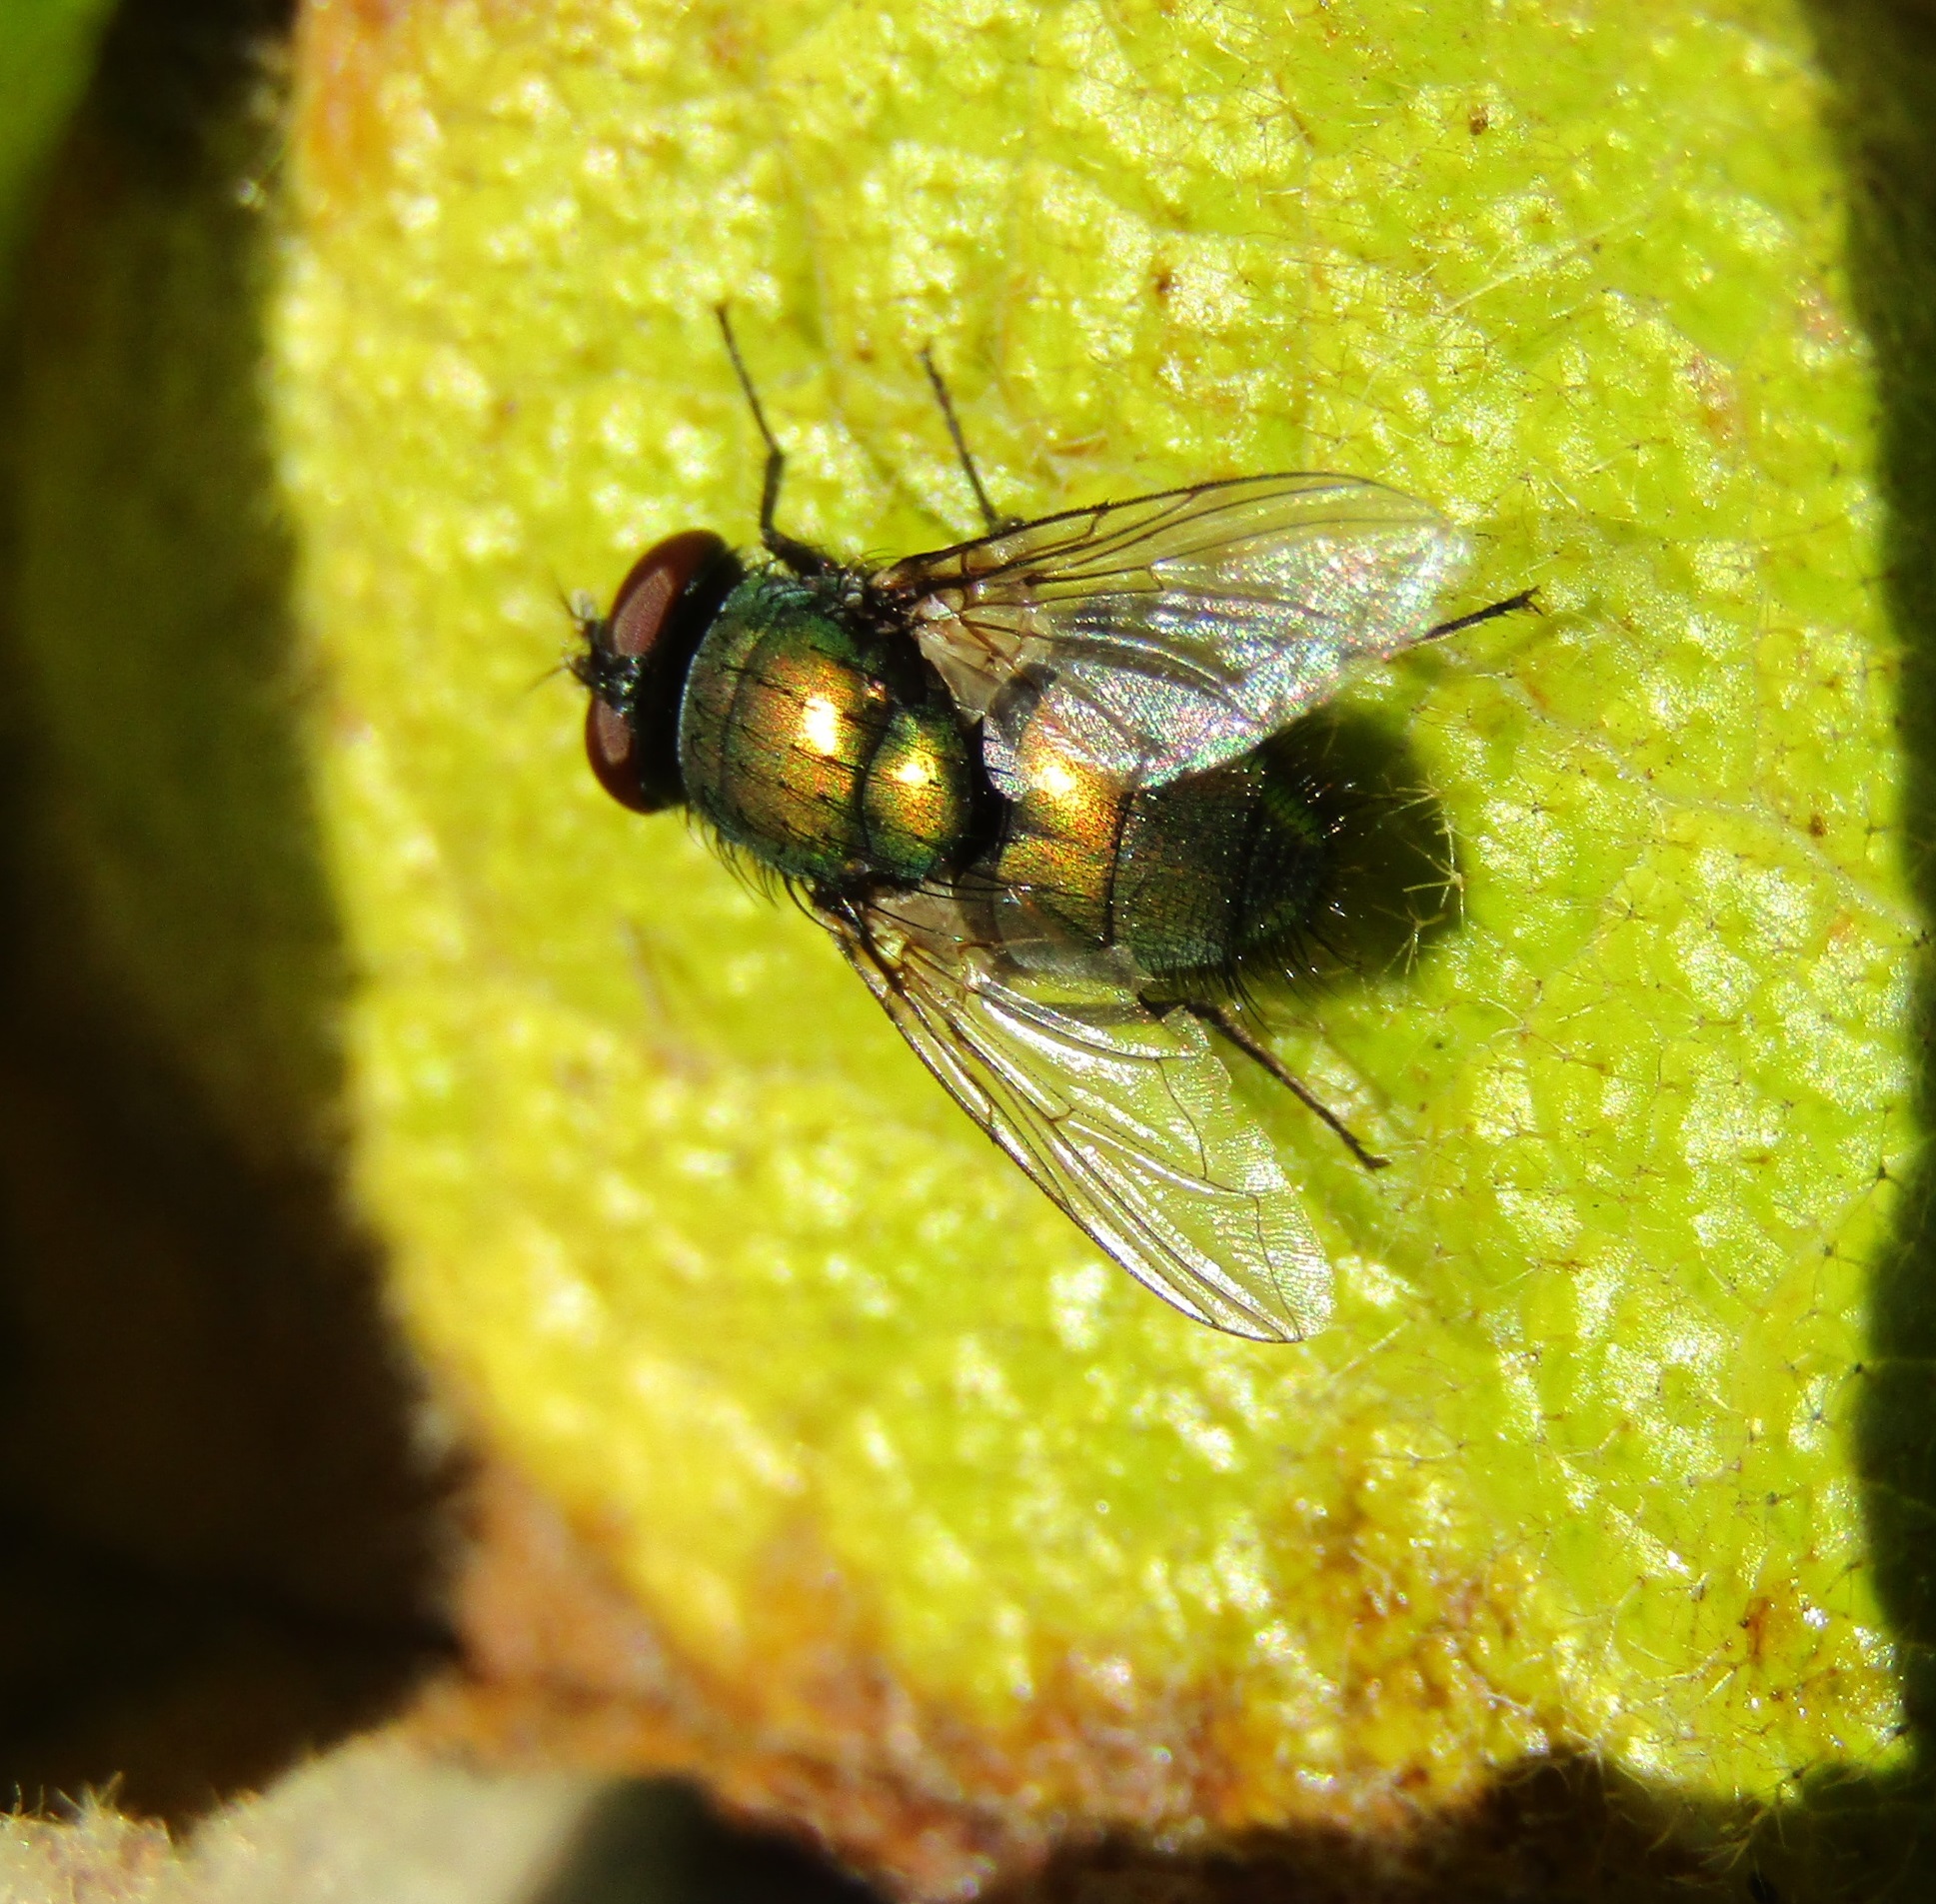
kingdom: Animalia
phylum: Arthropoda
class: Insecta
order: Diptera
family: Calliphoridae
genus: Lucilia
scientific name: Lucilia sericata
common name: Blow fly
